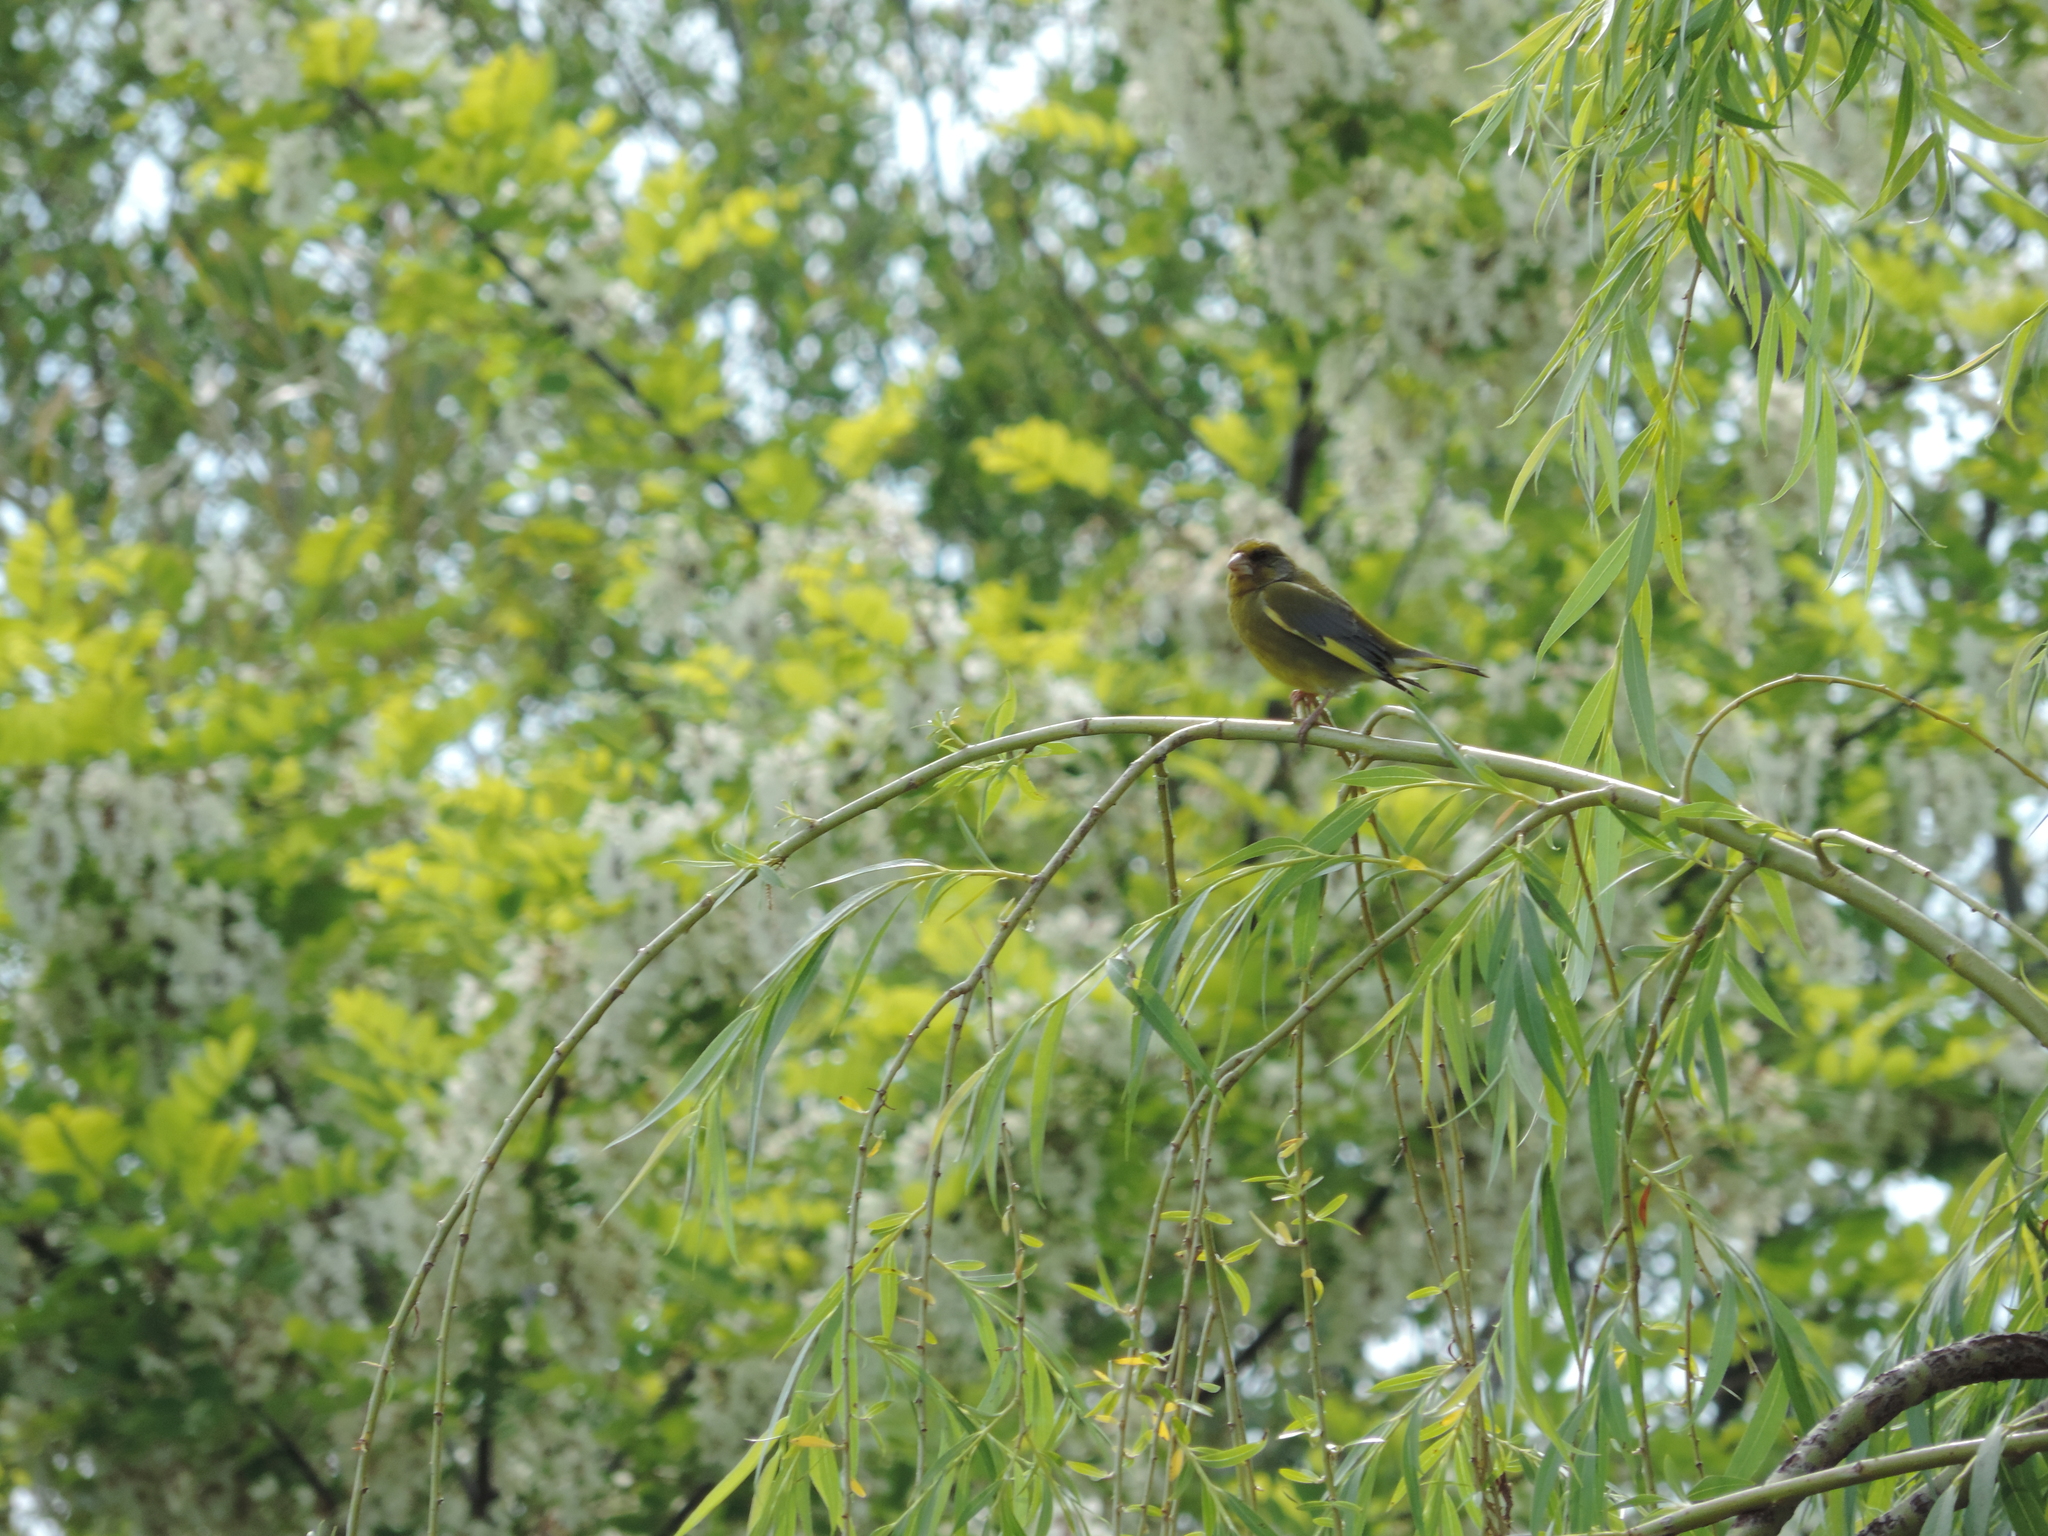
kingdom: Plantae
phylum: Tracheophyta
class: Liliopsida
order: Poales
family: Poaceae
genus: Chloris
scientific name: Chloris chloris
